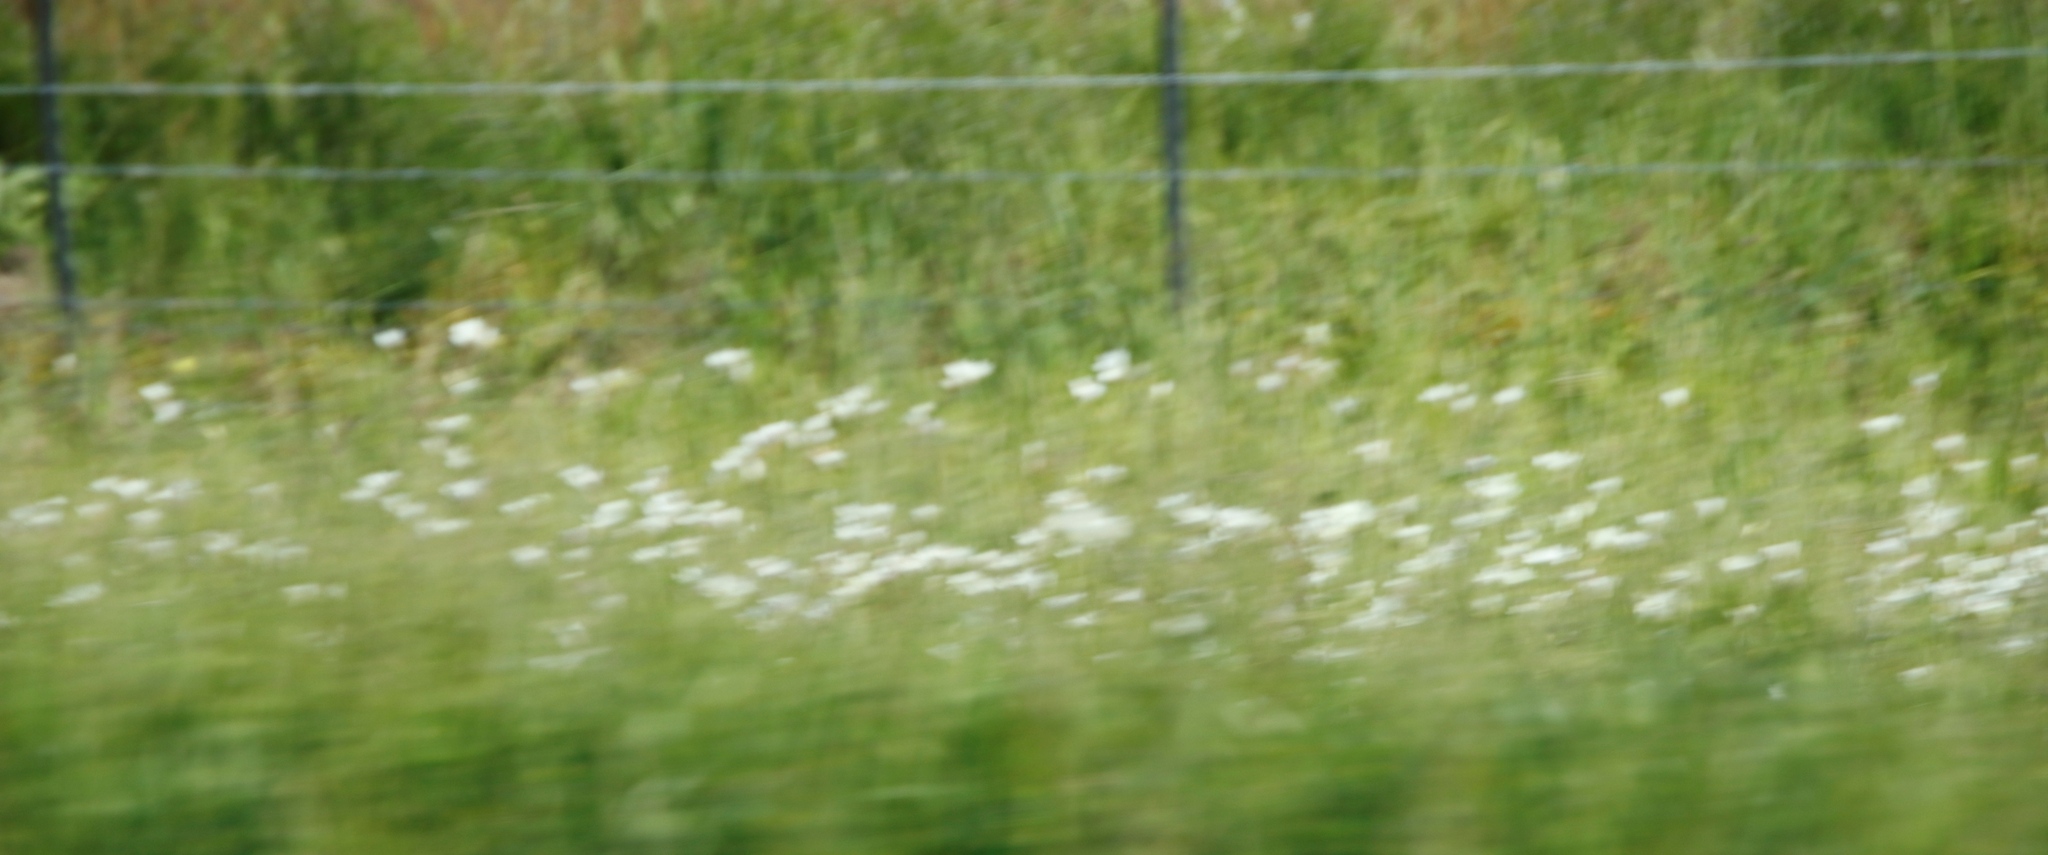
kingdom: Plantae
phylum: Tracheophyta
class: Liliopsida
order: Asparagales
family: Iridaceae
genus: Sparaxis
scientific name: Sparaxis bulbifera
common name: Harlequin-flower
